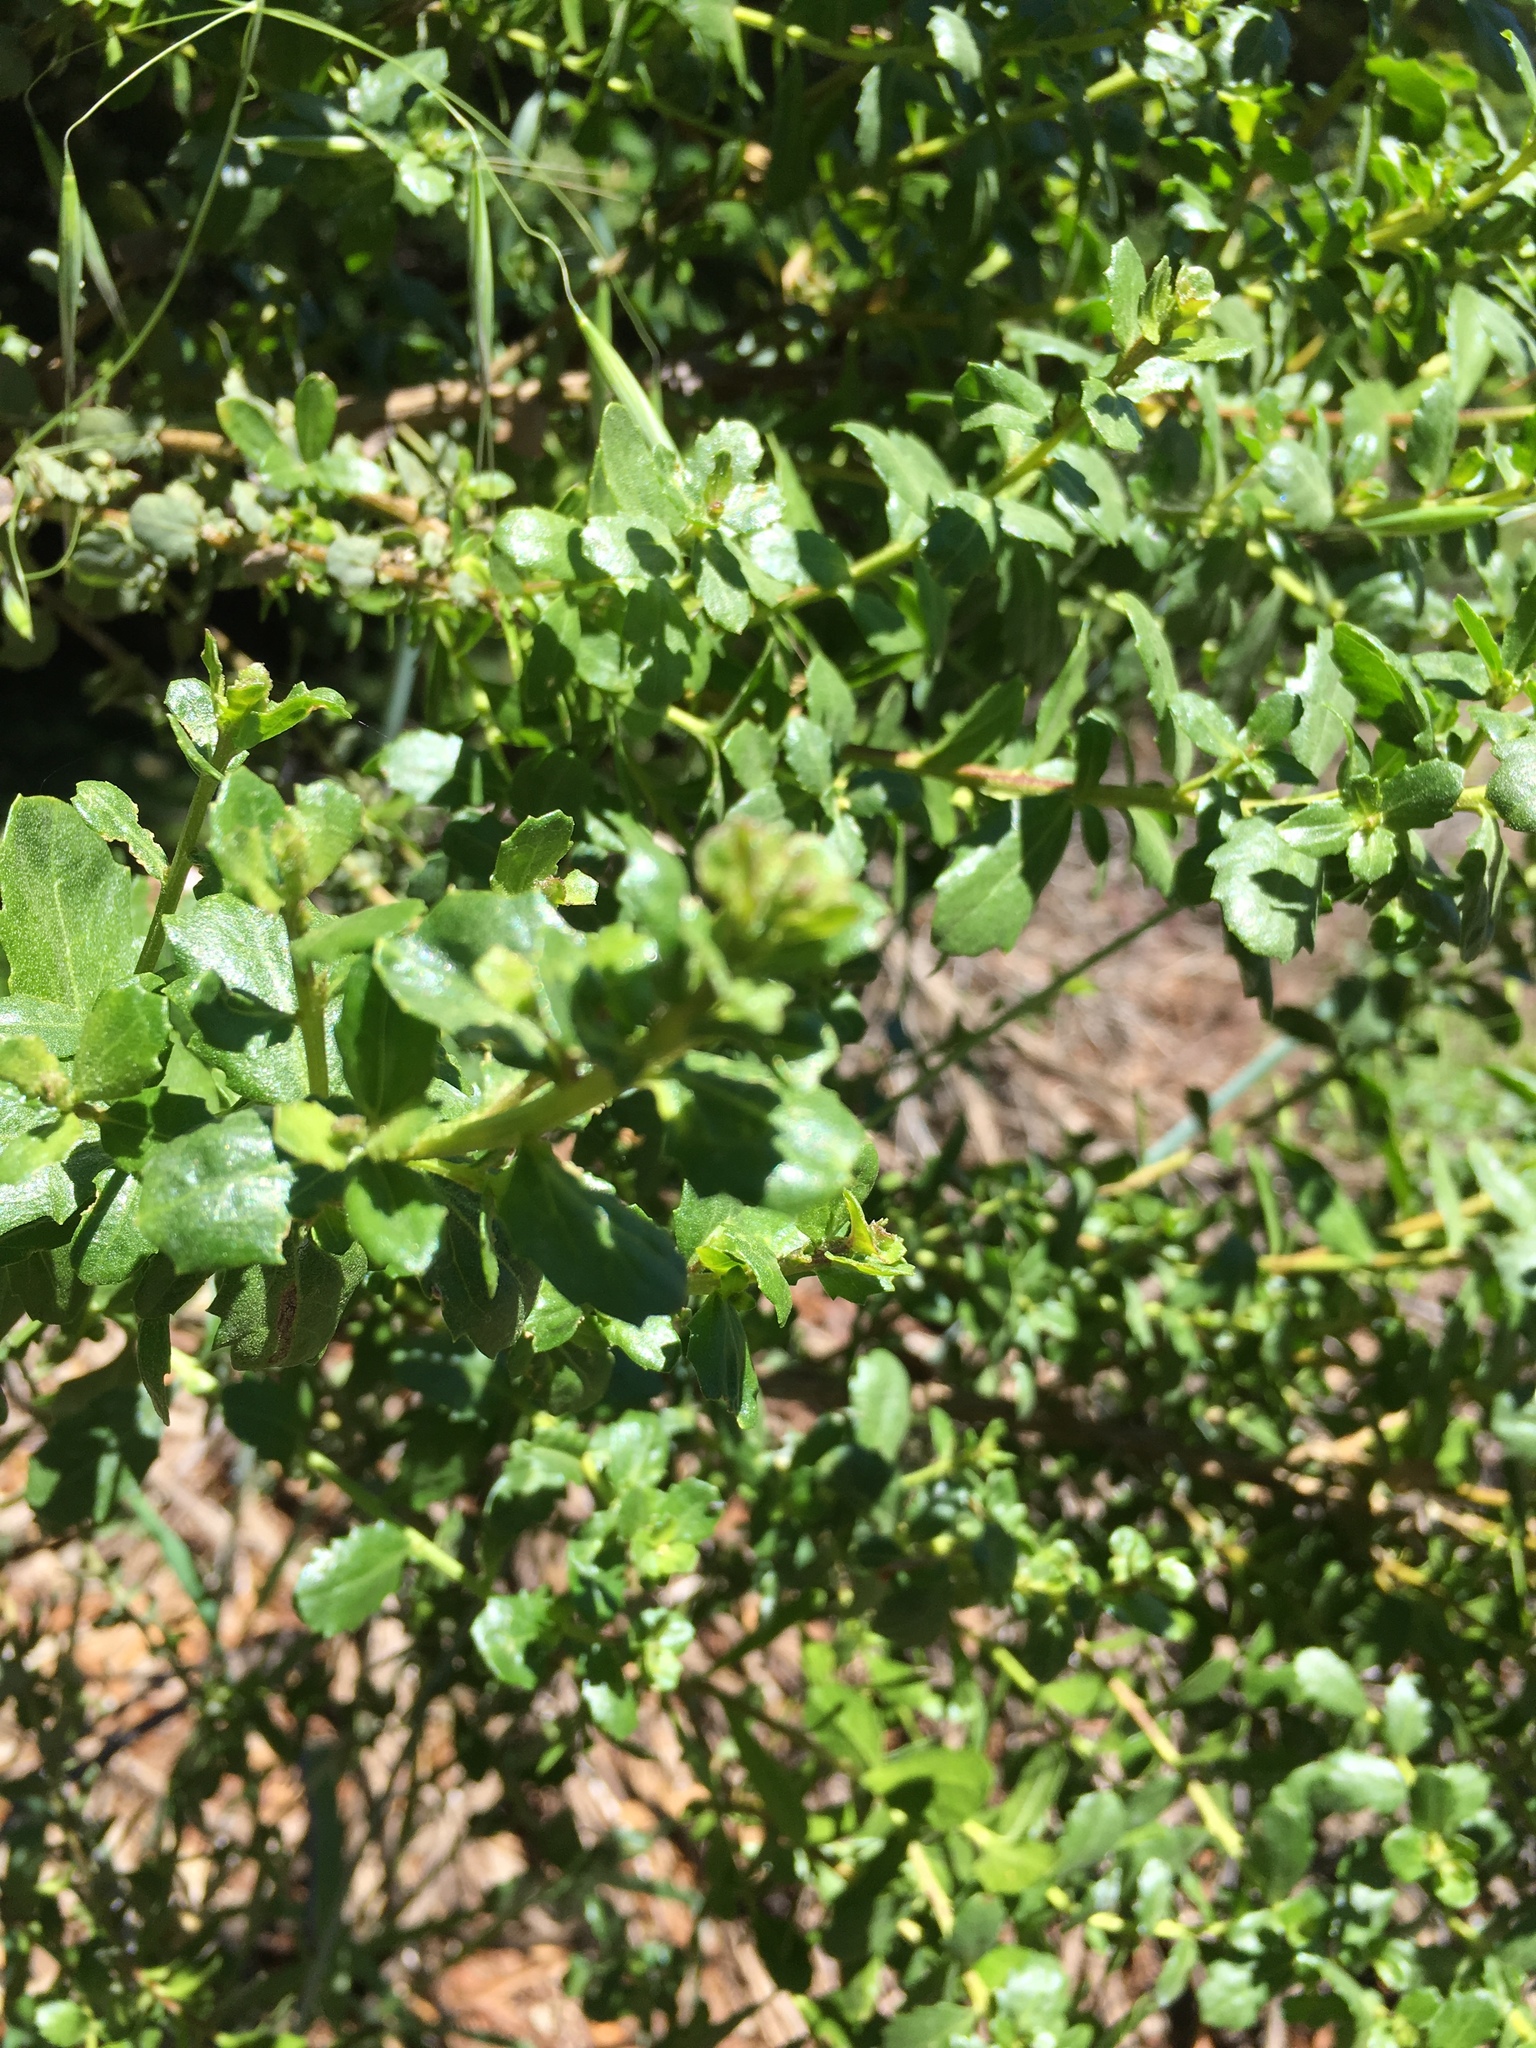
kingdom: Plantae
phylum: Tracheophyta
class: Magnoliopsida
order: Asterales
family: Asteraceae
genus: Baccharis
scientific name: Baccharis pilularis
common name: Coyotebrush
